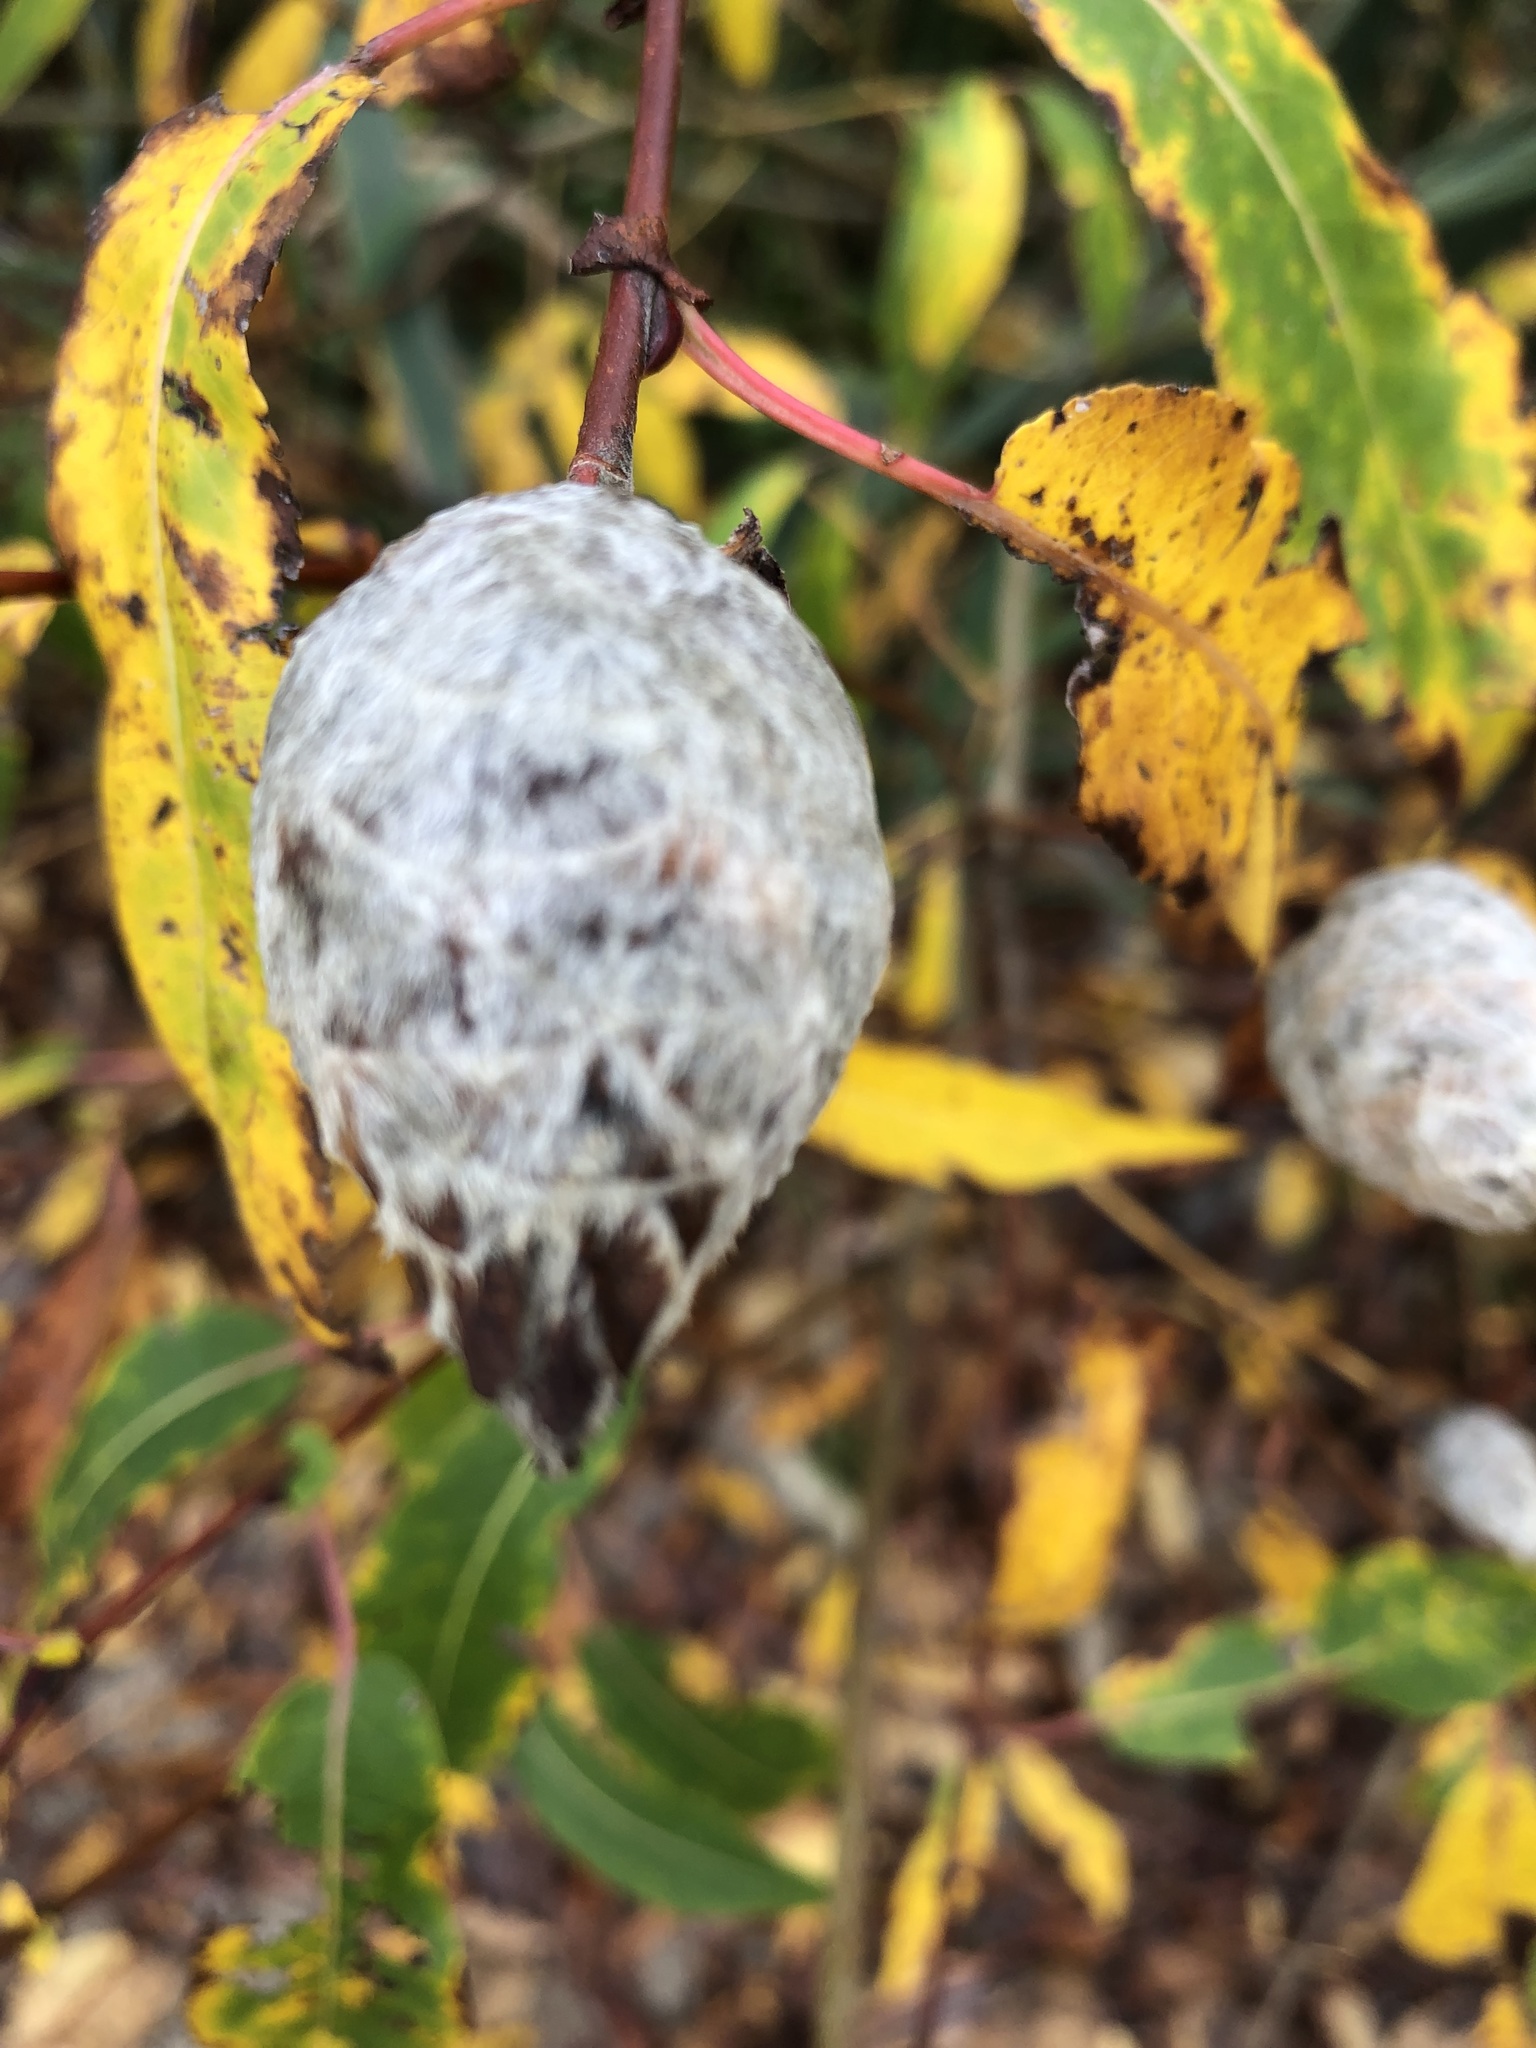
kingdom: Animalia
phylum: Arthropoda
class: Insecta
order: Diptera
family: Cecidomyiidae
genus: Rabdophaga
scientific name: Rabdophaga strobiloides
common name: Willow pinecone gall midge
